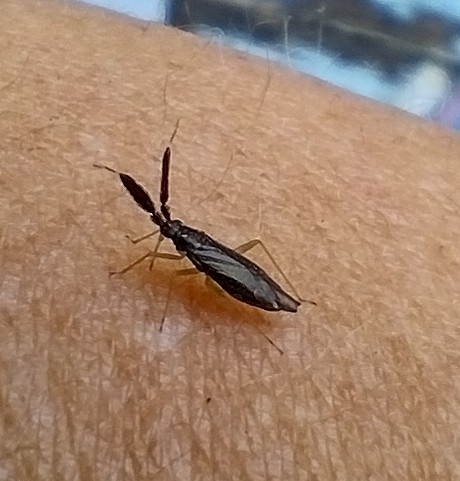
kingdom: Animalia
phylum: Arthropoda
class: Insecta
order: Hemiptera
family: Miridae
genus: Heterotoma
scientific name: Heterotoma planicornis
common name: Plant bug
